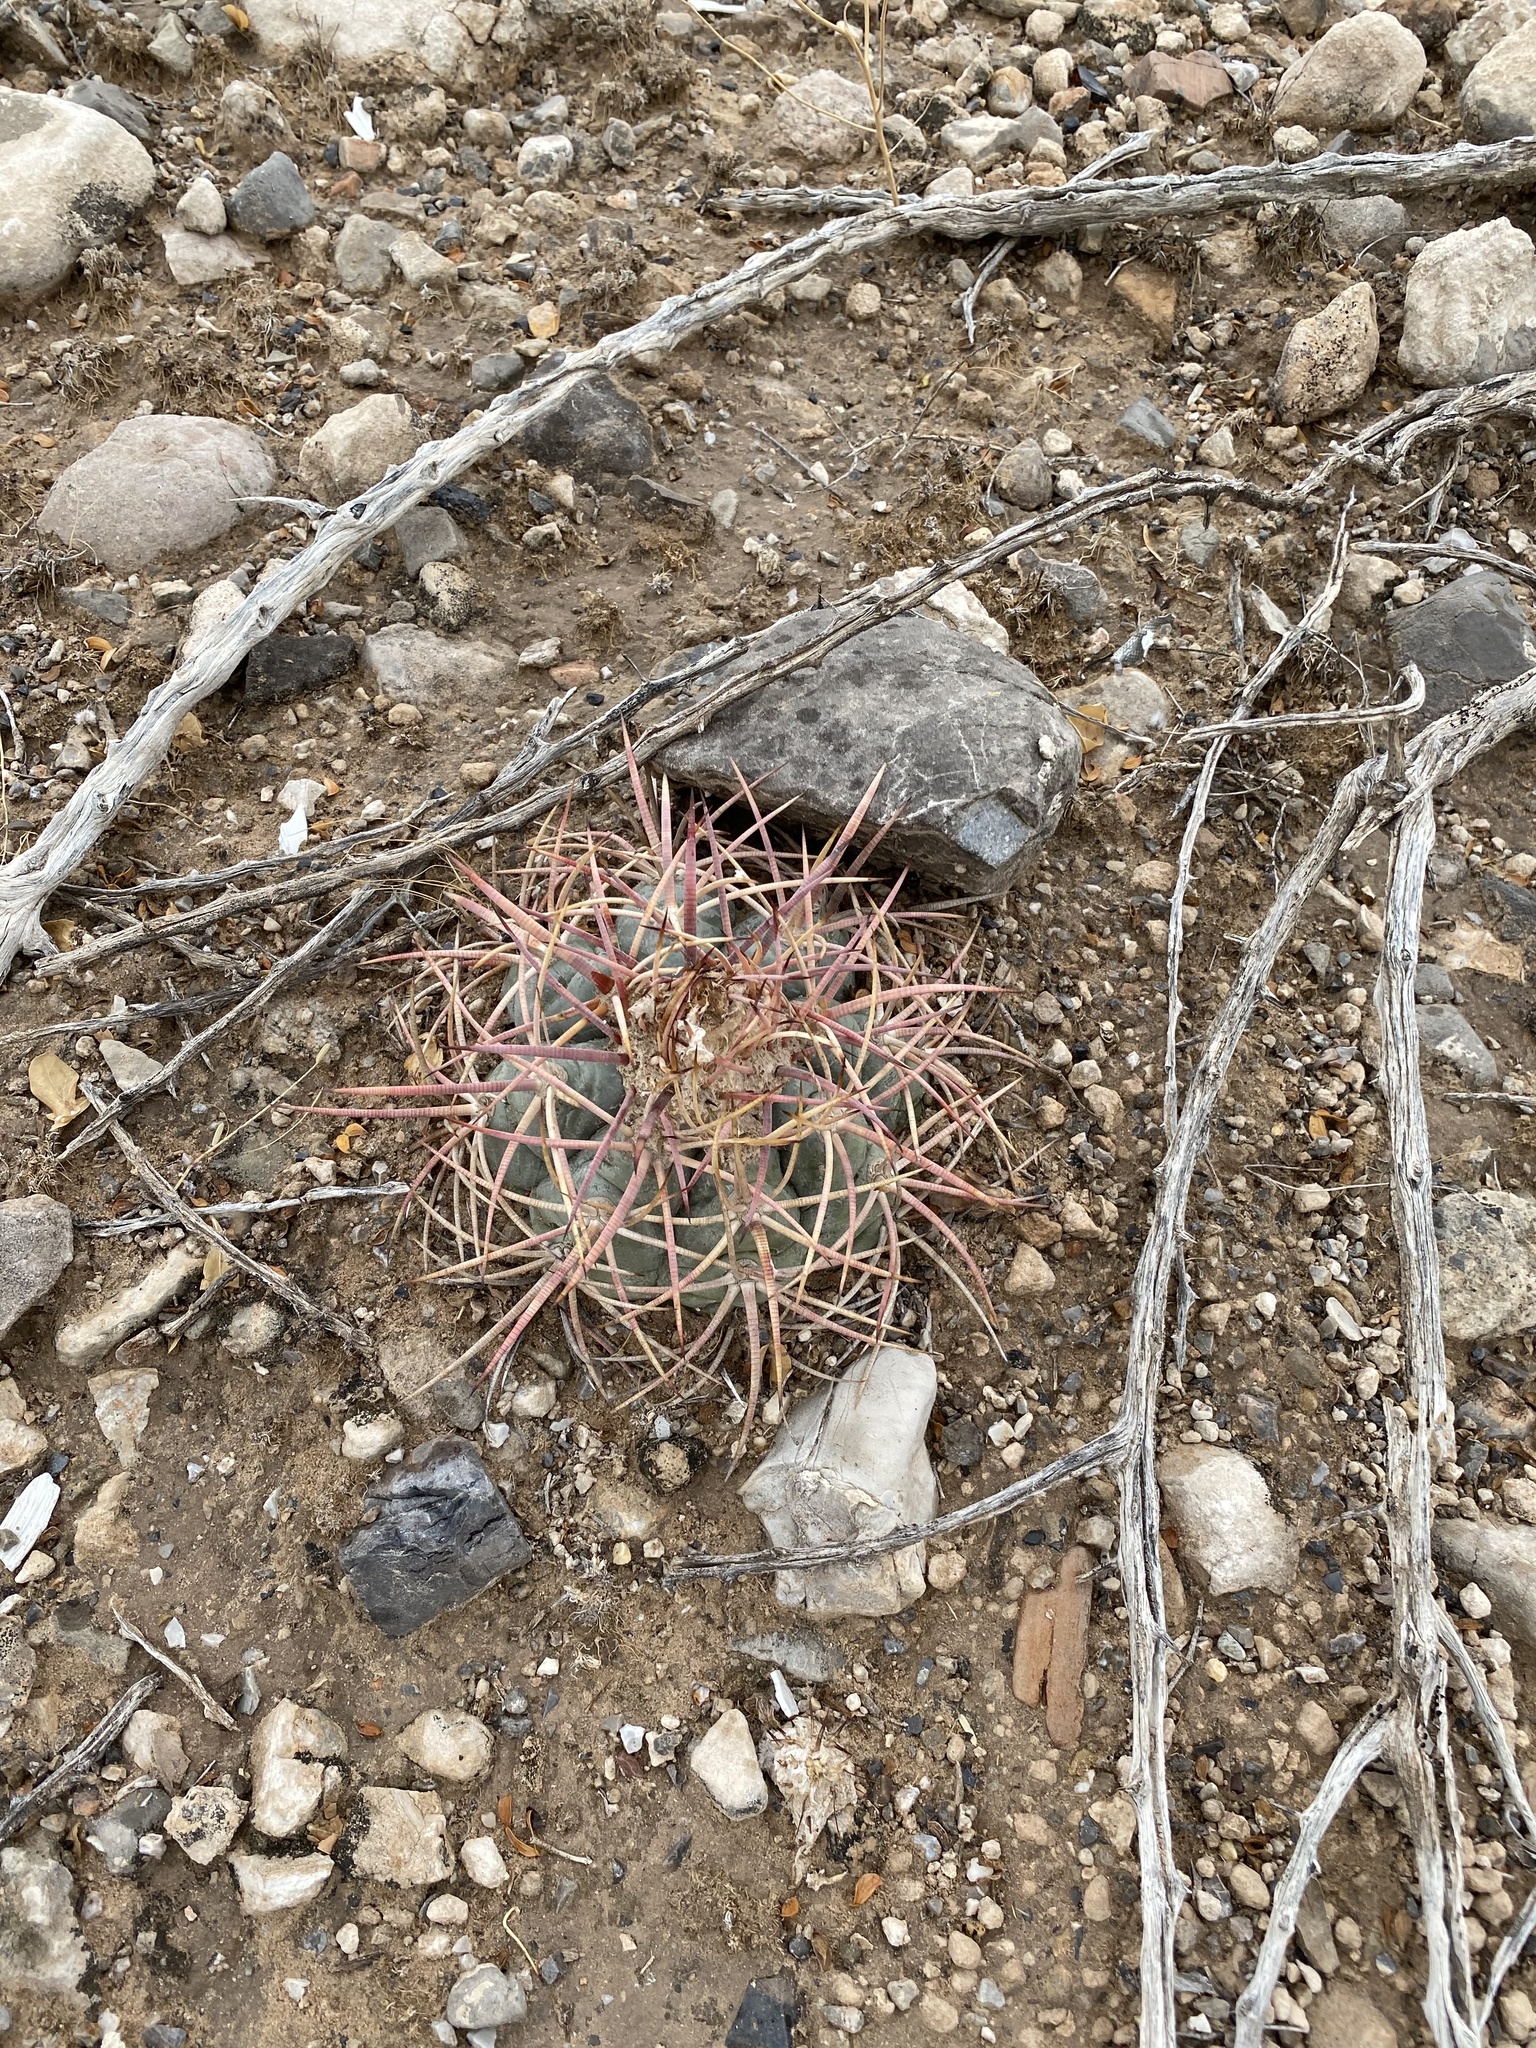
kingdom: Plantae
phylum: Tracheophyta
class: Magnoliopsida
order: Caryophyllales
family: Cactaceae
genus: Echinocactus
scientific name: Echinocactus horizonthalonius
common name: Devilshead
